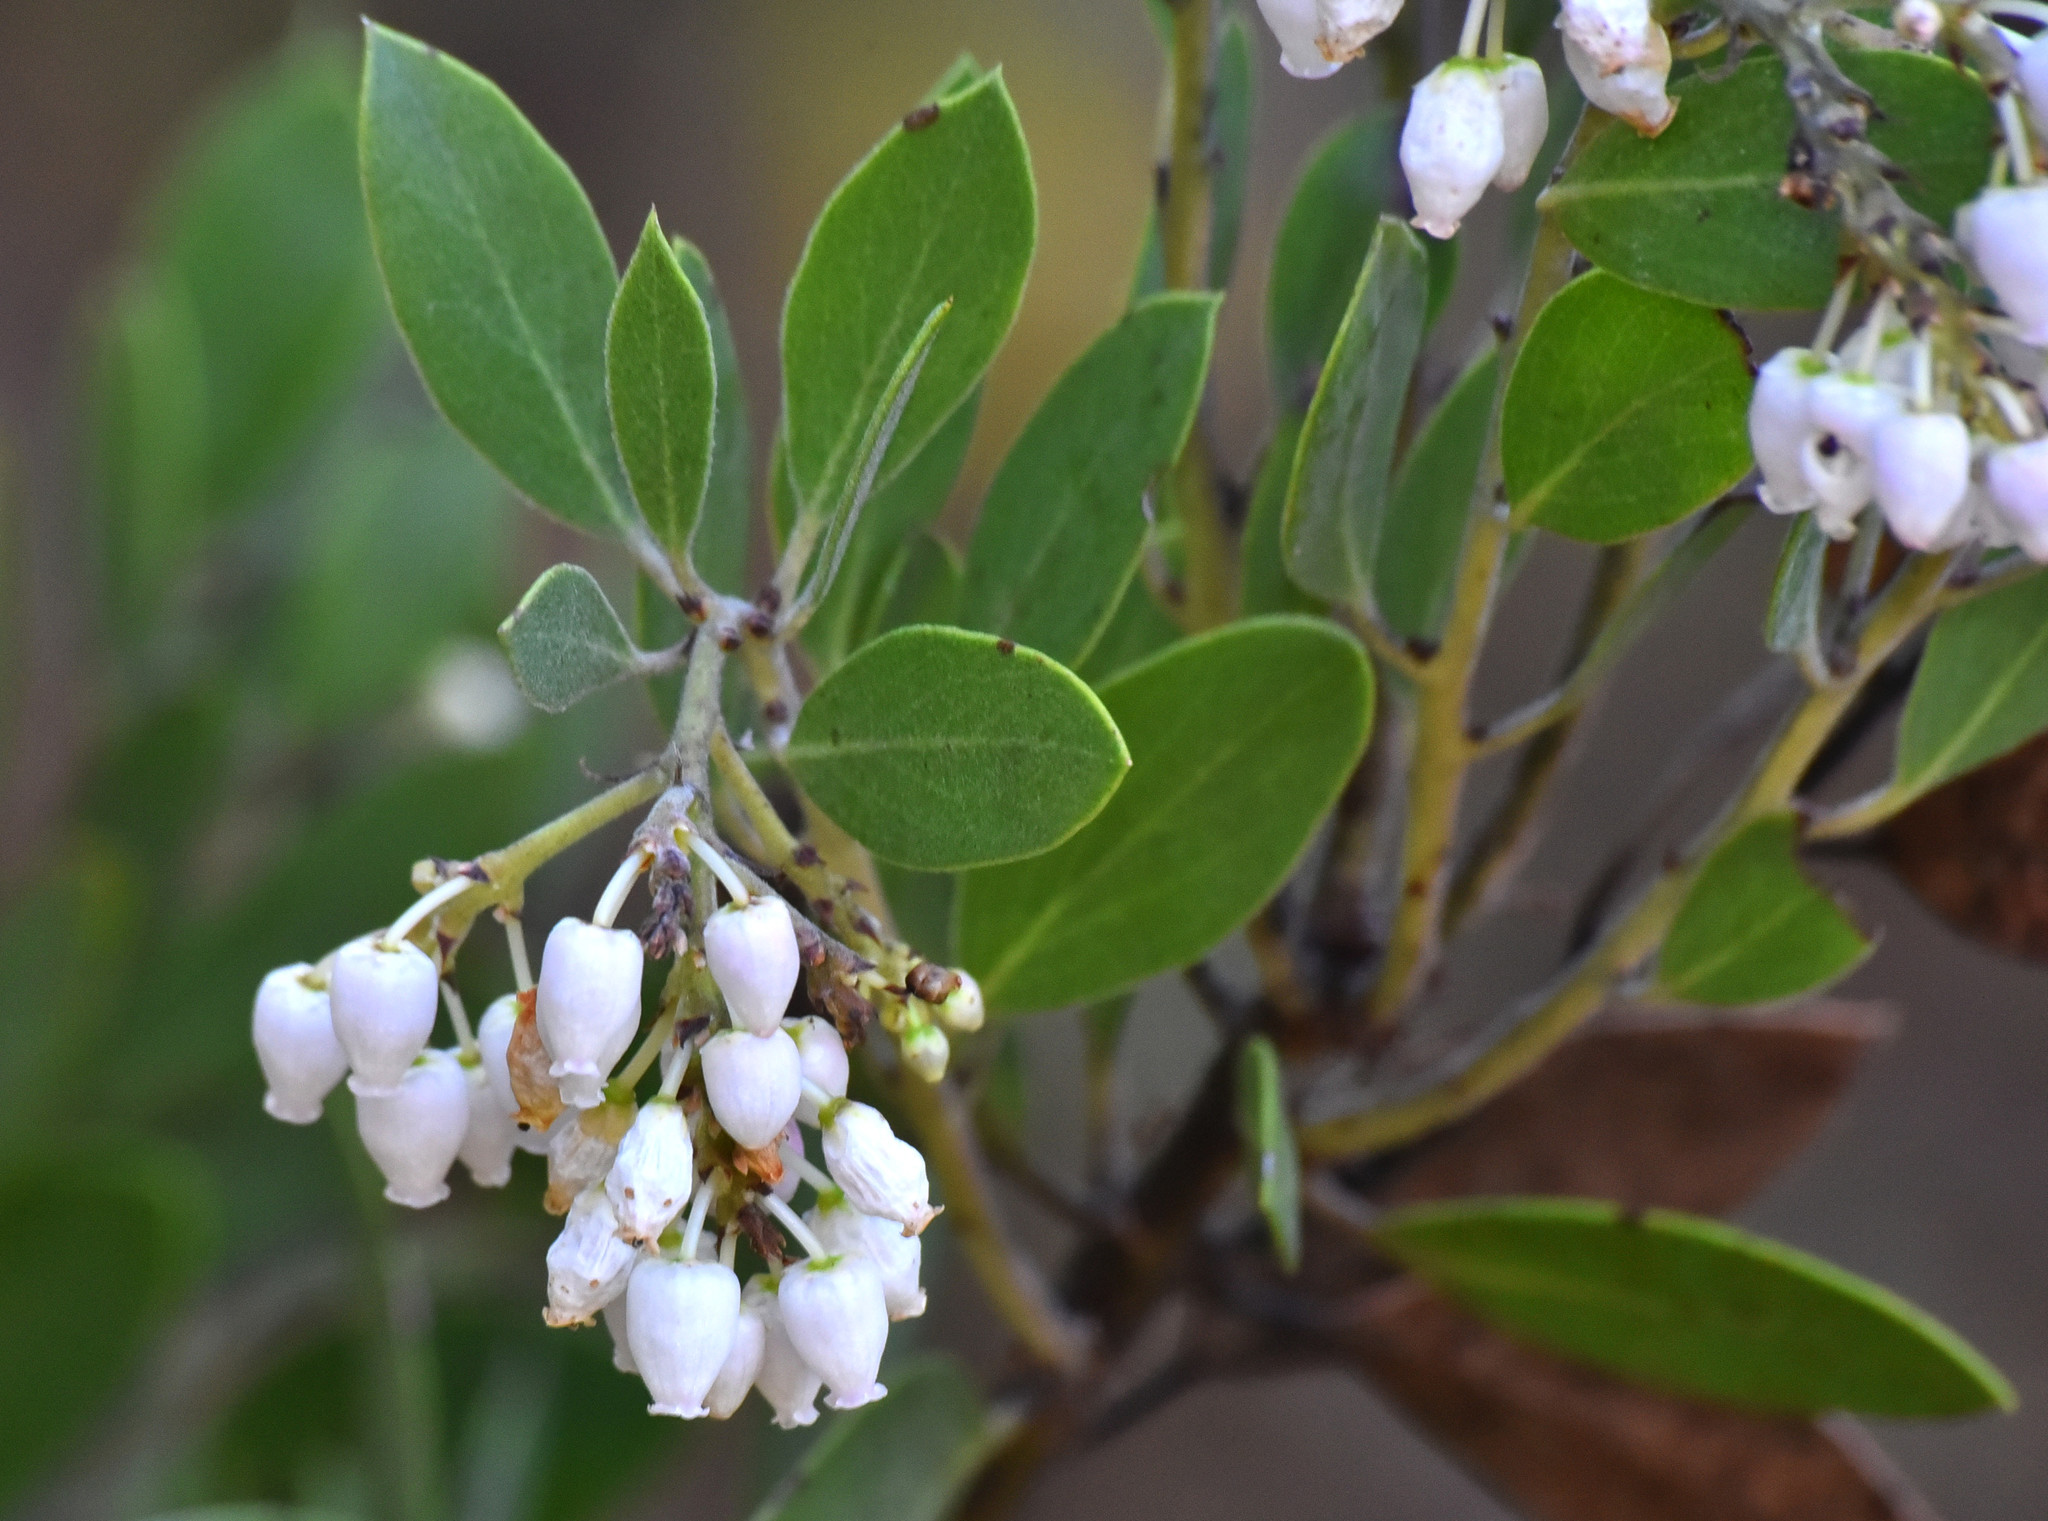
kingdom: Plantae
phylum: Tracheophyta
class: Magnoliopsida
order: Ericales
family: Ericaceae
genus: Arctostaphylos
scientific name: Arctostaphylos manzanita
